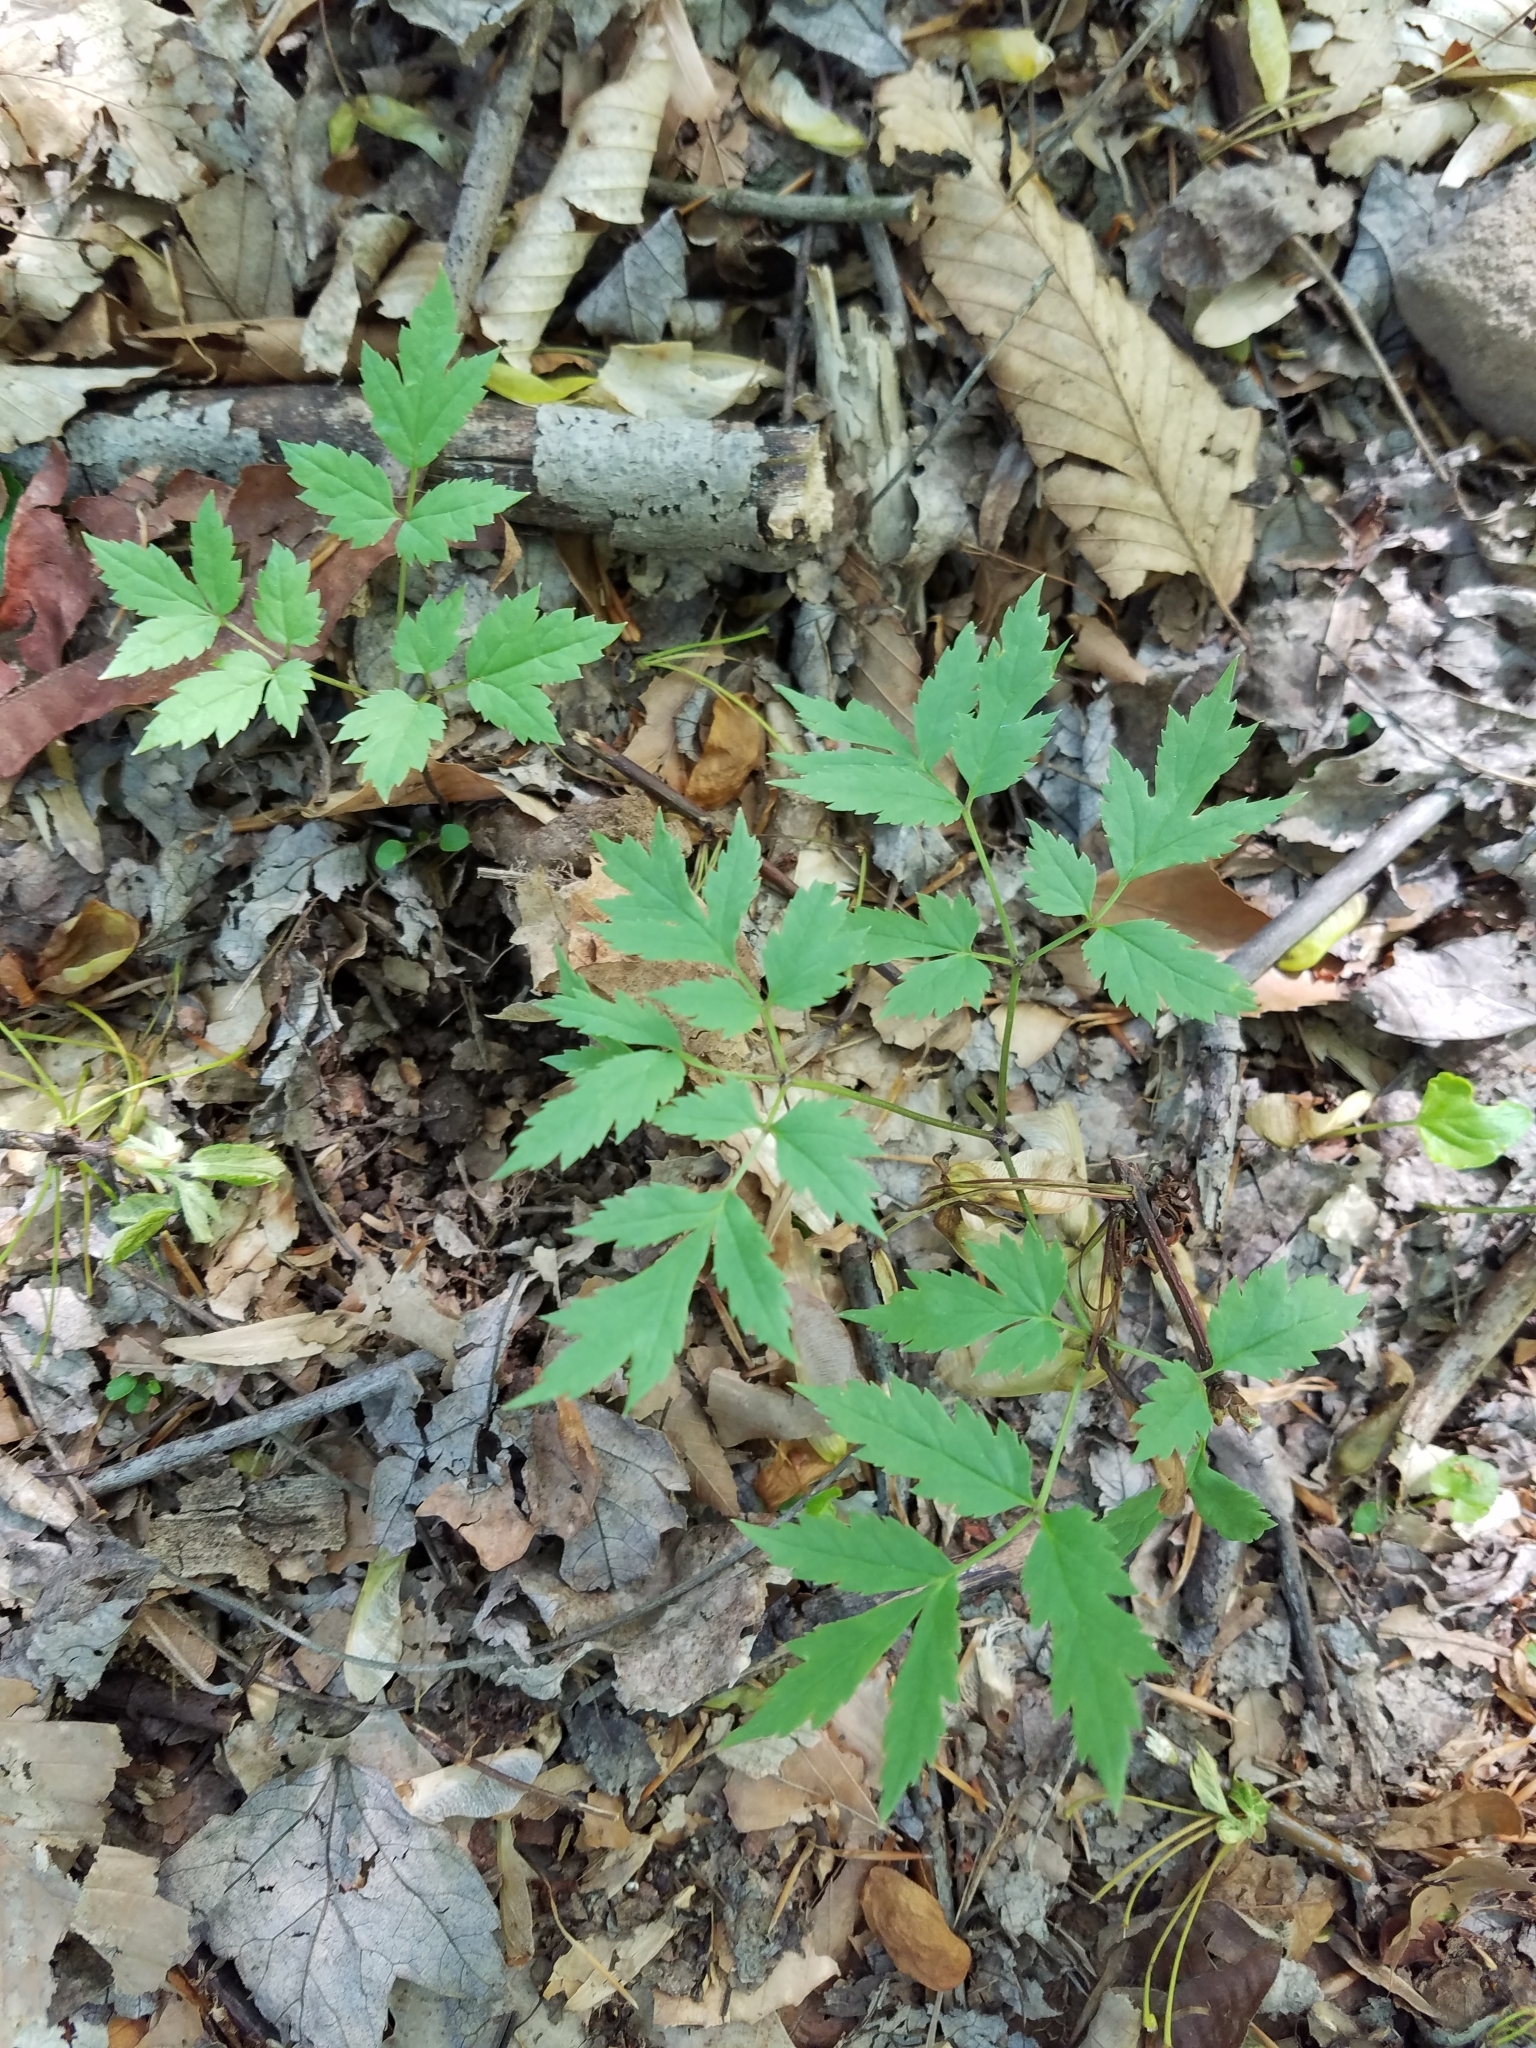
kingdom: Plantae
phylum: Tracheophyta
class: Magnoliopsida
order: Ranunculales
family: Ranunculaceae
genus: Actaea
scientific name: Actaea racemosa
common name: Black cohosh
